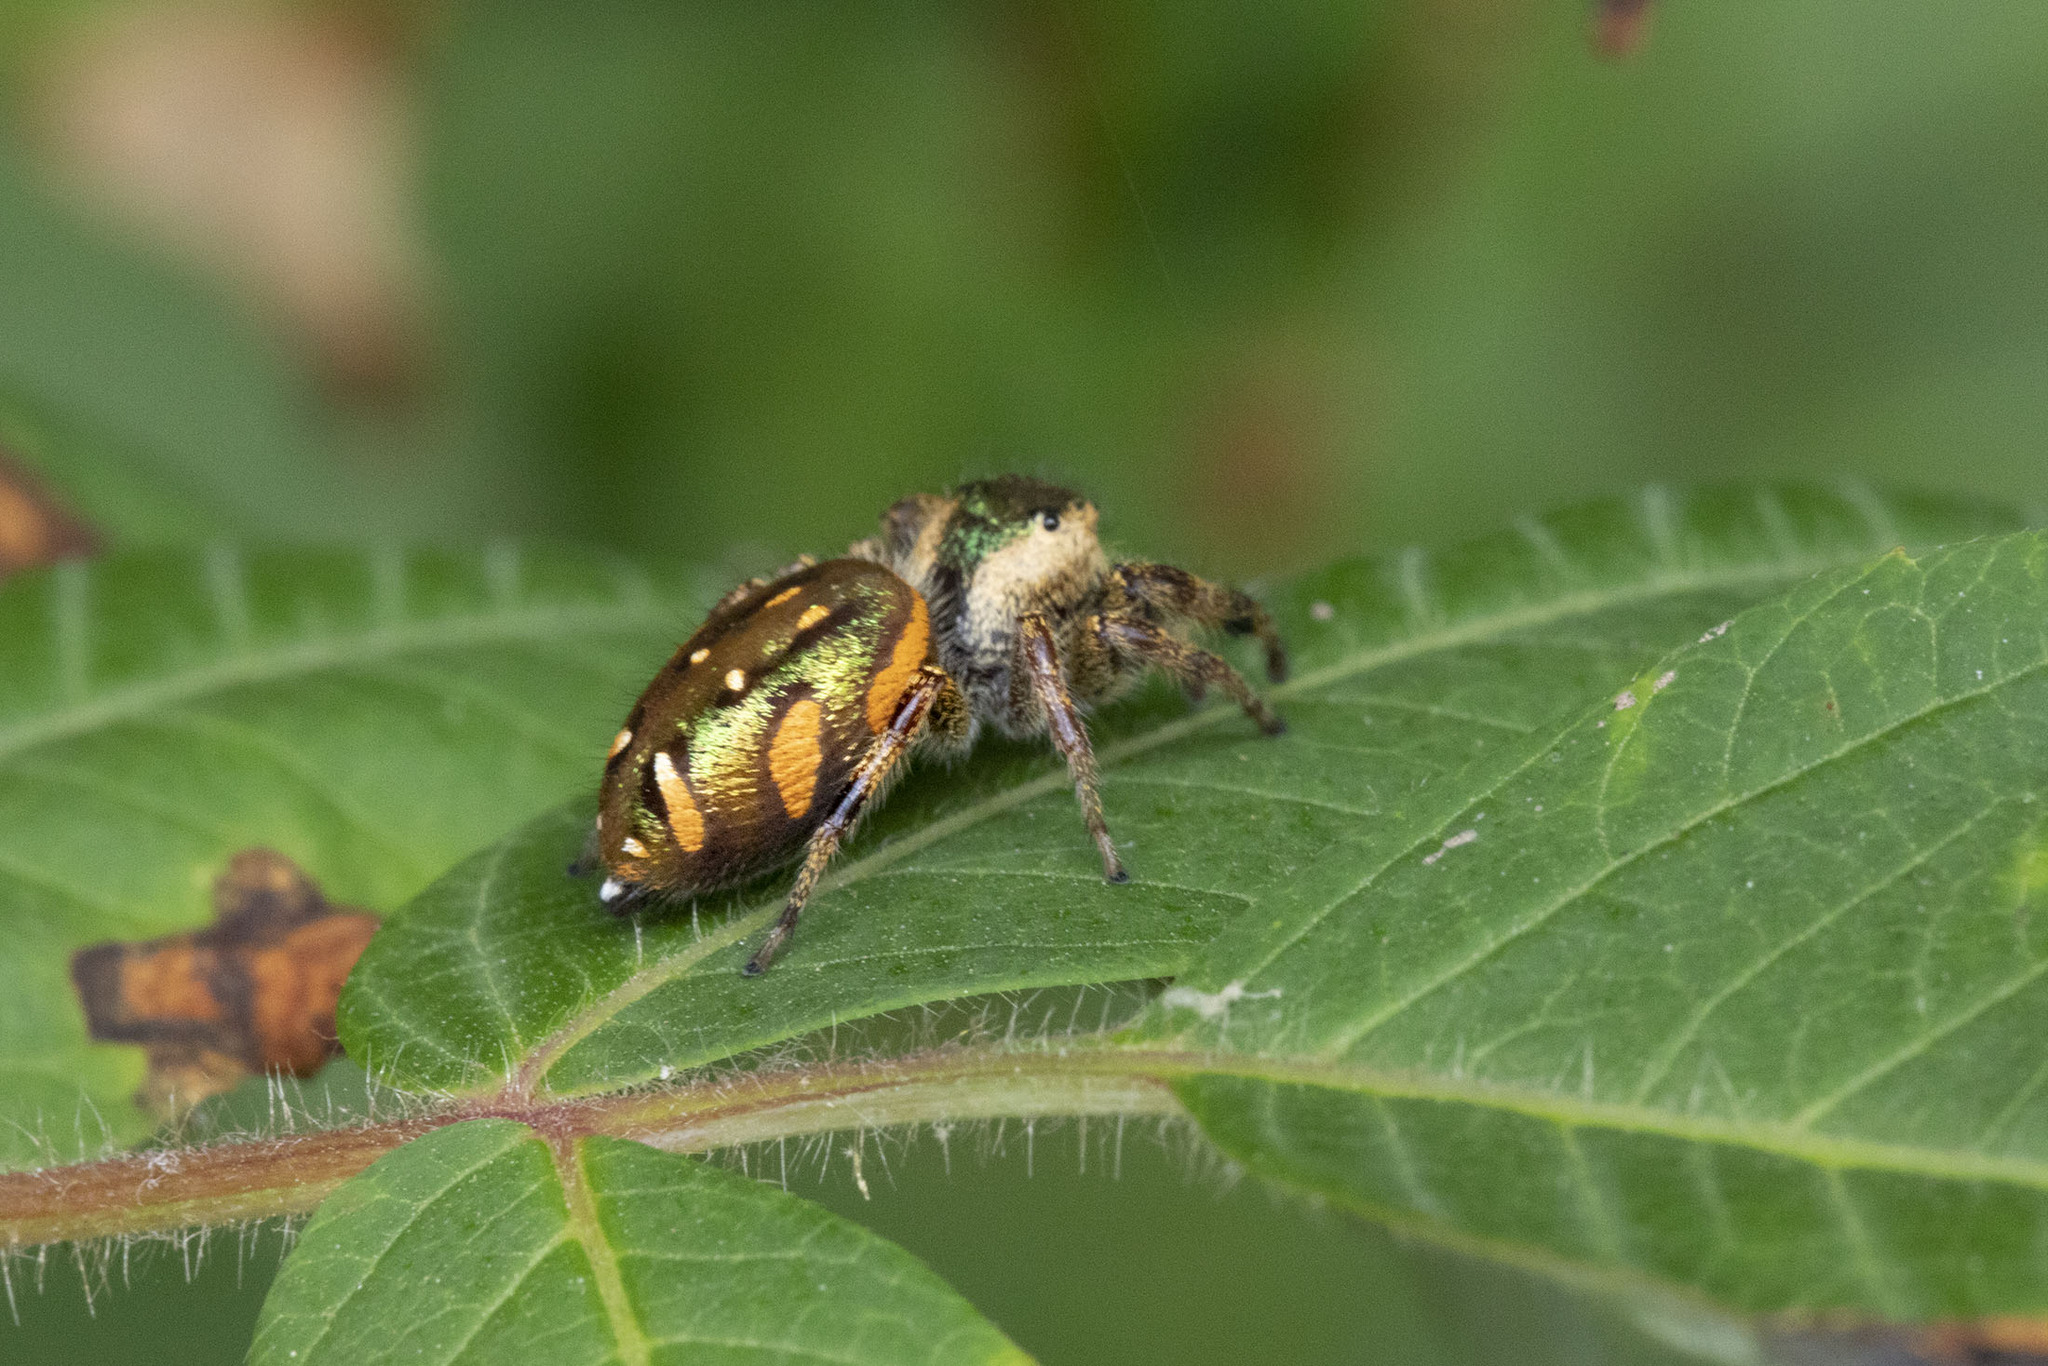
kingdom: Animalia
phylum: Arthropoda
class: Arachnida
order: Araneae
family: Salticidae
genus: Paraphidippus
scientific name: Paraphidippus aurantius
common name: Jumping spiders
